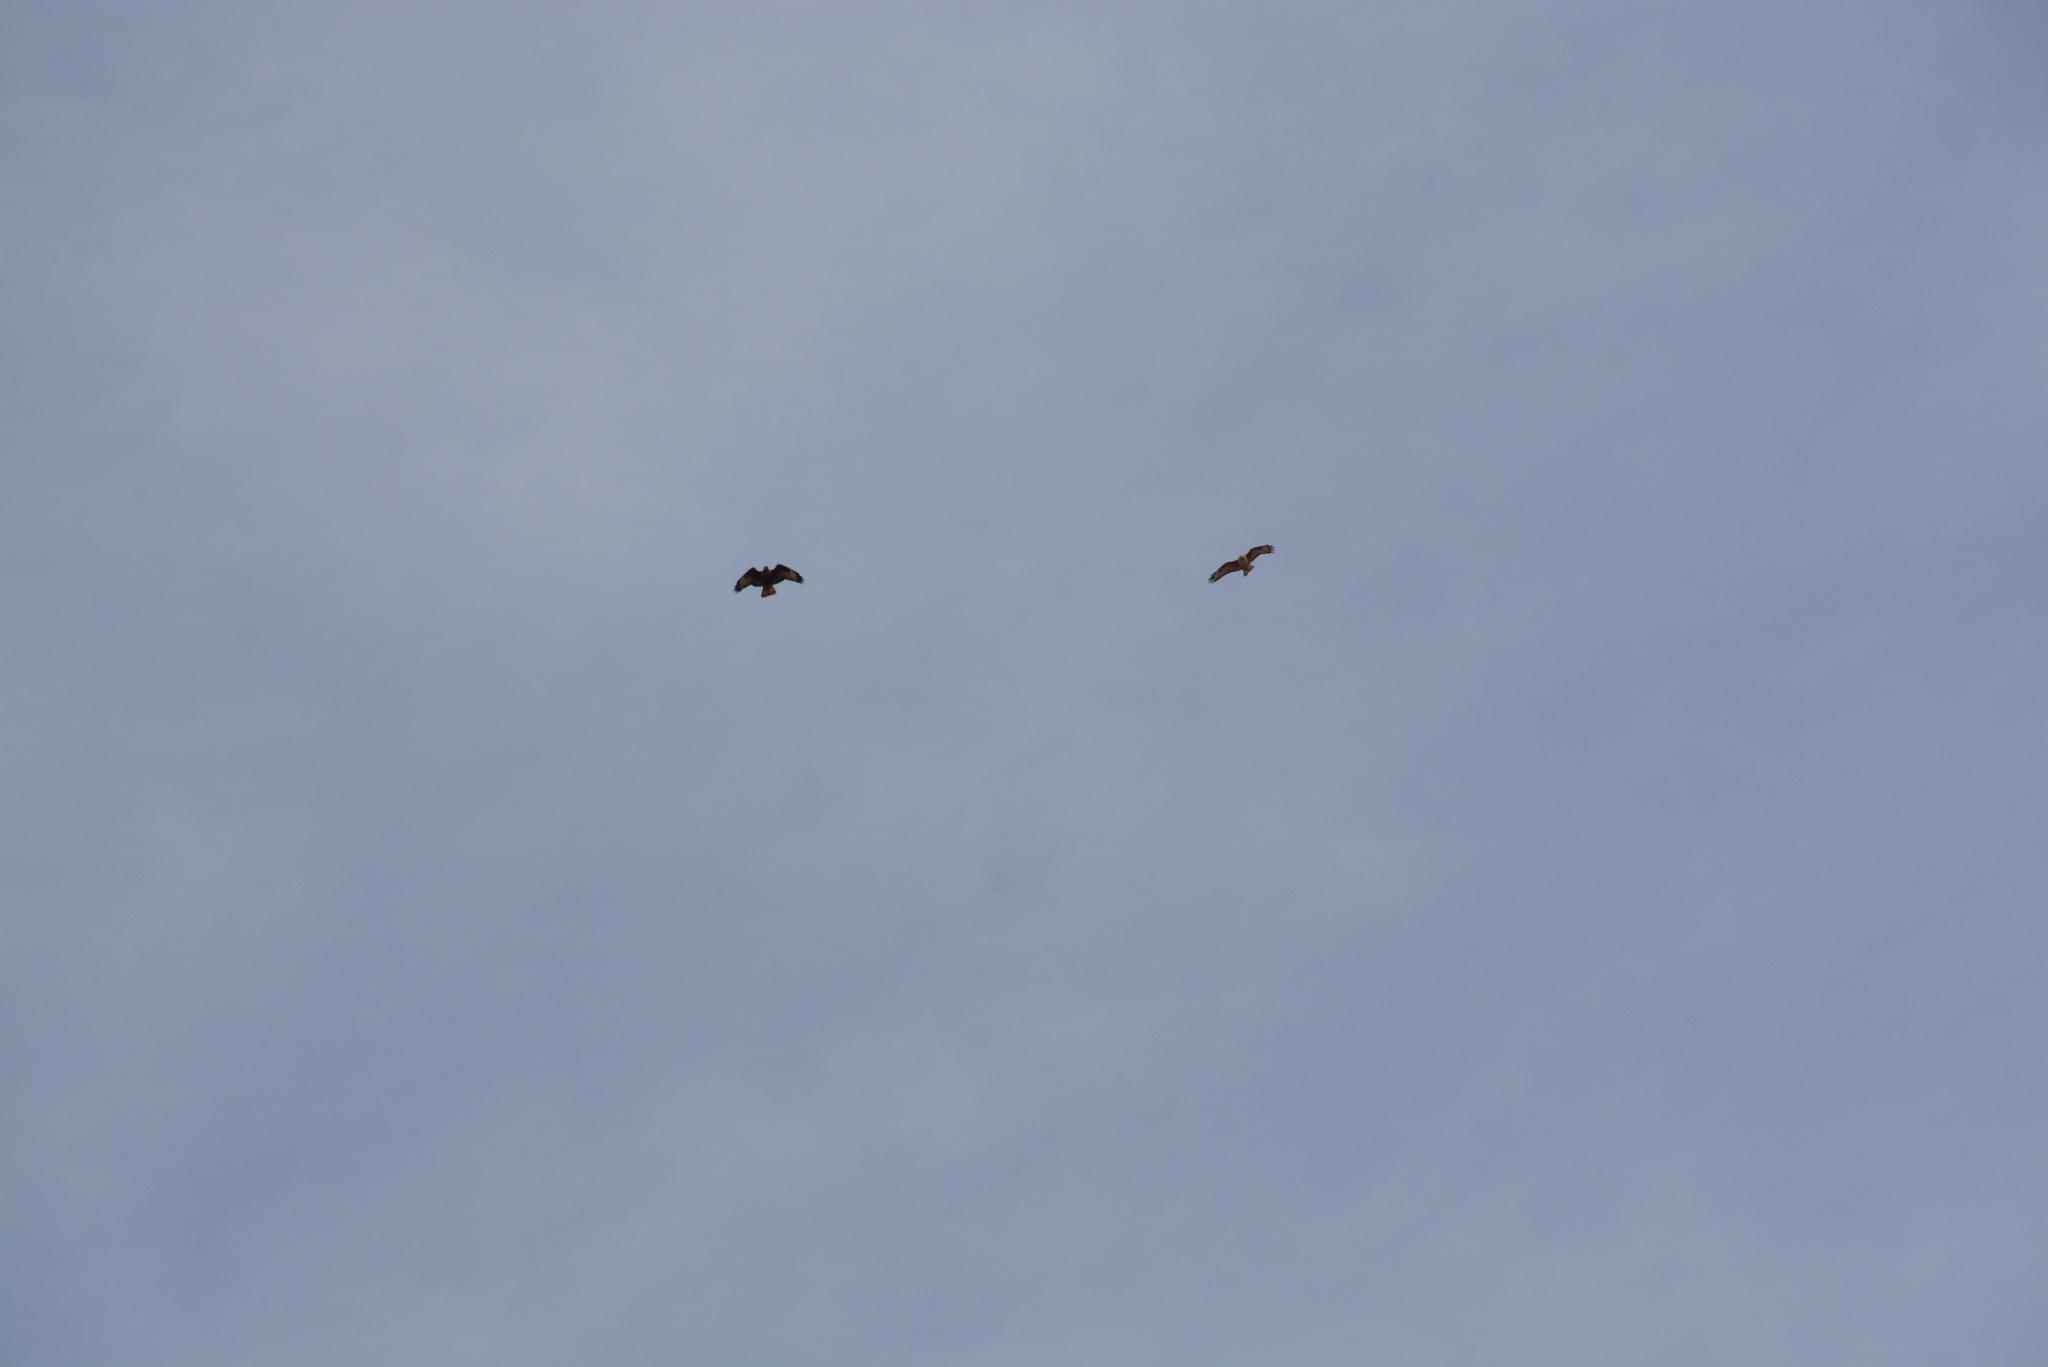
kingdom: Animalia
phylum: Chordata
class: Aves
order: Accipitriformes
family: Accipitridae
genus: Buteo
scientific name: Buteo rufinus
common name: Long-legged buzzard
